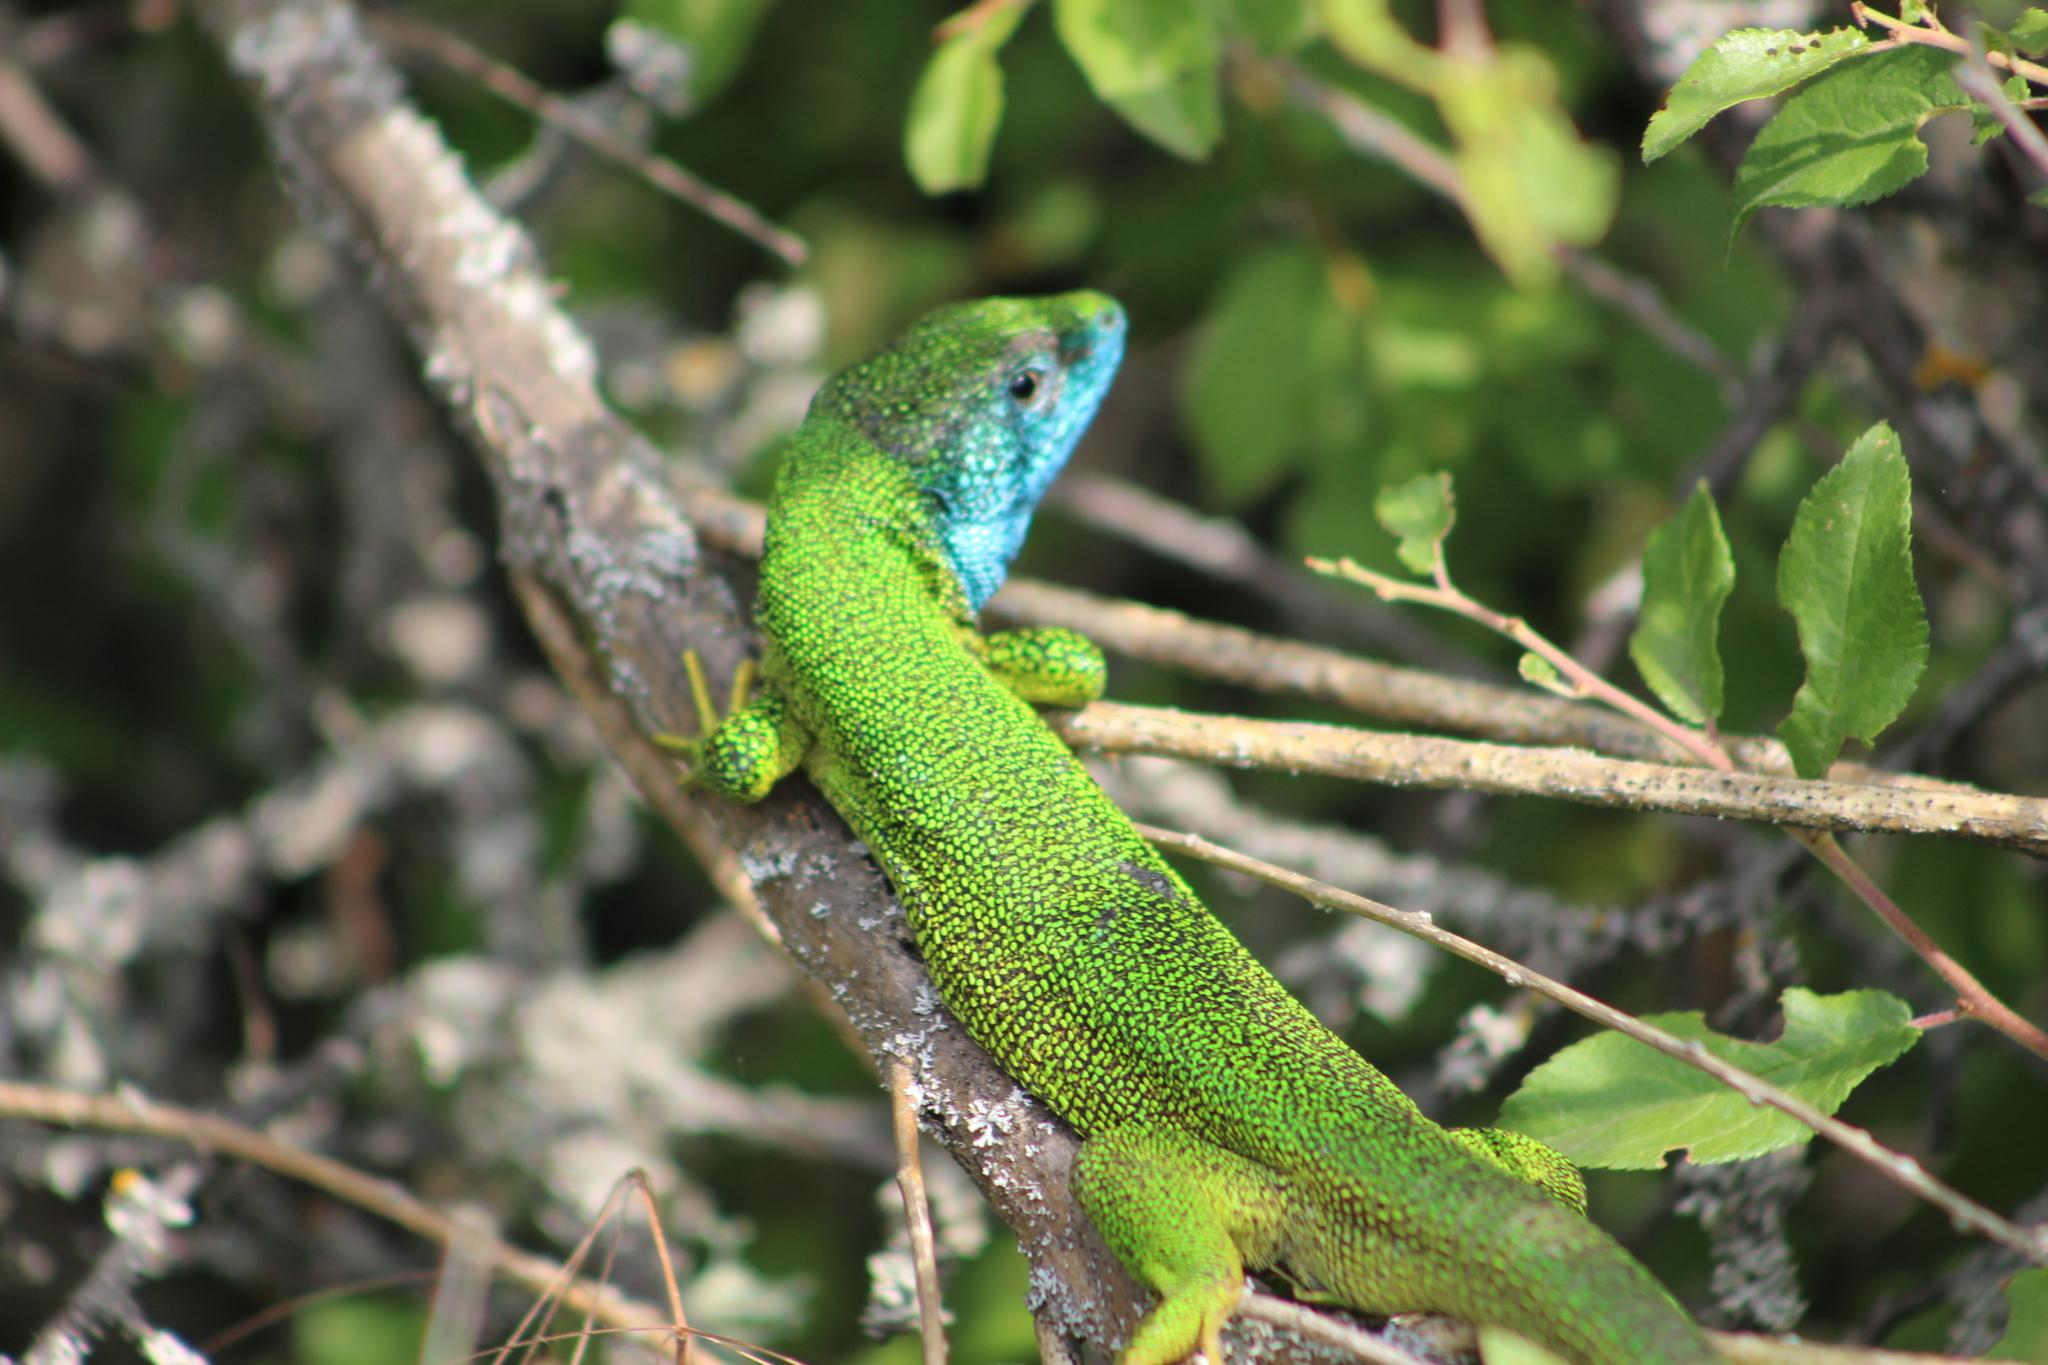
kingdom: Animalia
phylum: Chordata
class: Squamata
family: Lacertidae
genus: Lacerta
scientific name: Lacerta viridis
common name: European green lizard
